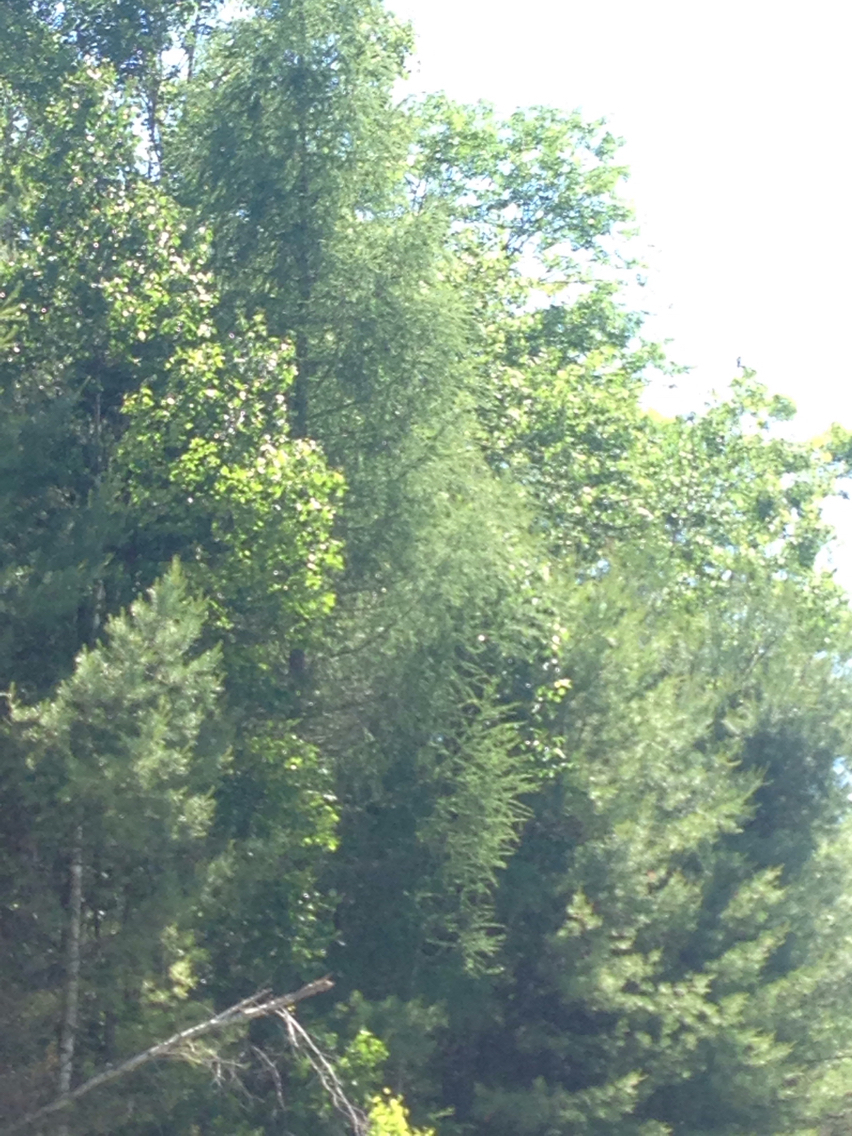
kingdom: Plantae
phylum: Tracheophyta
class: Pinopsida
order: Pinales
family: Pinaceae
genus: Larix
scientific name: Larix laricina
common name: American larch
